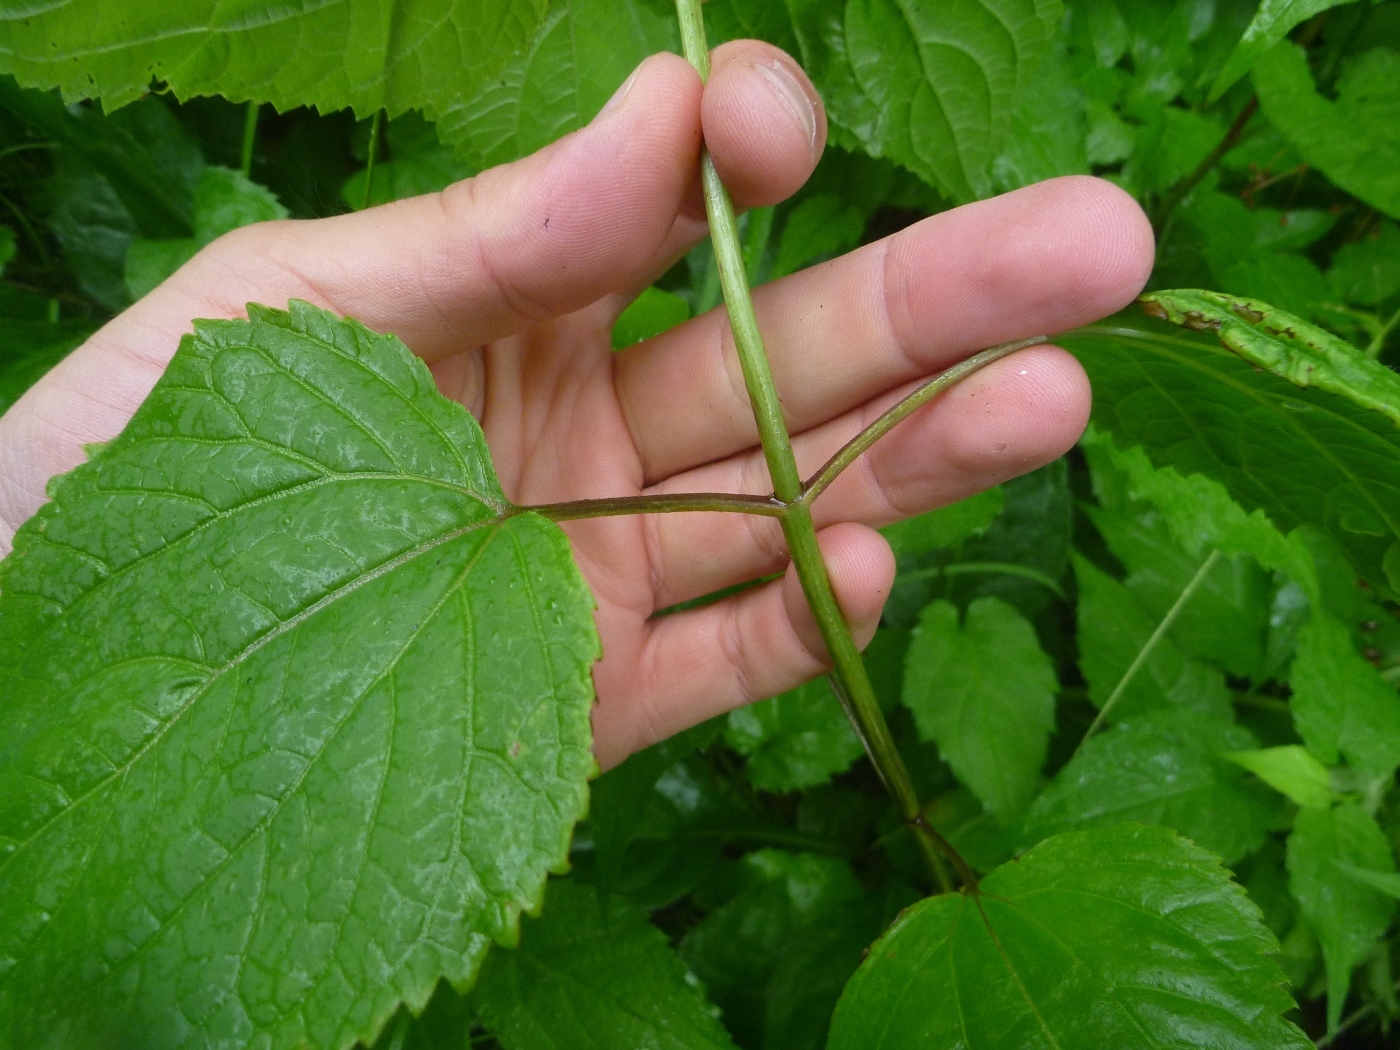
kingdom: Plantae
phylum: Tracheophyta
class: Magnoliopsida
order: Asterales
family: Asteraceae
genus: Ageratina
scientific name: Ageratina altissima
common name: White snakeroot
